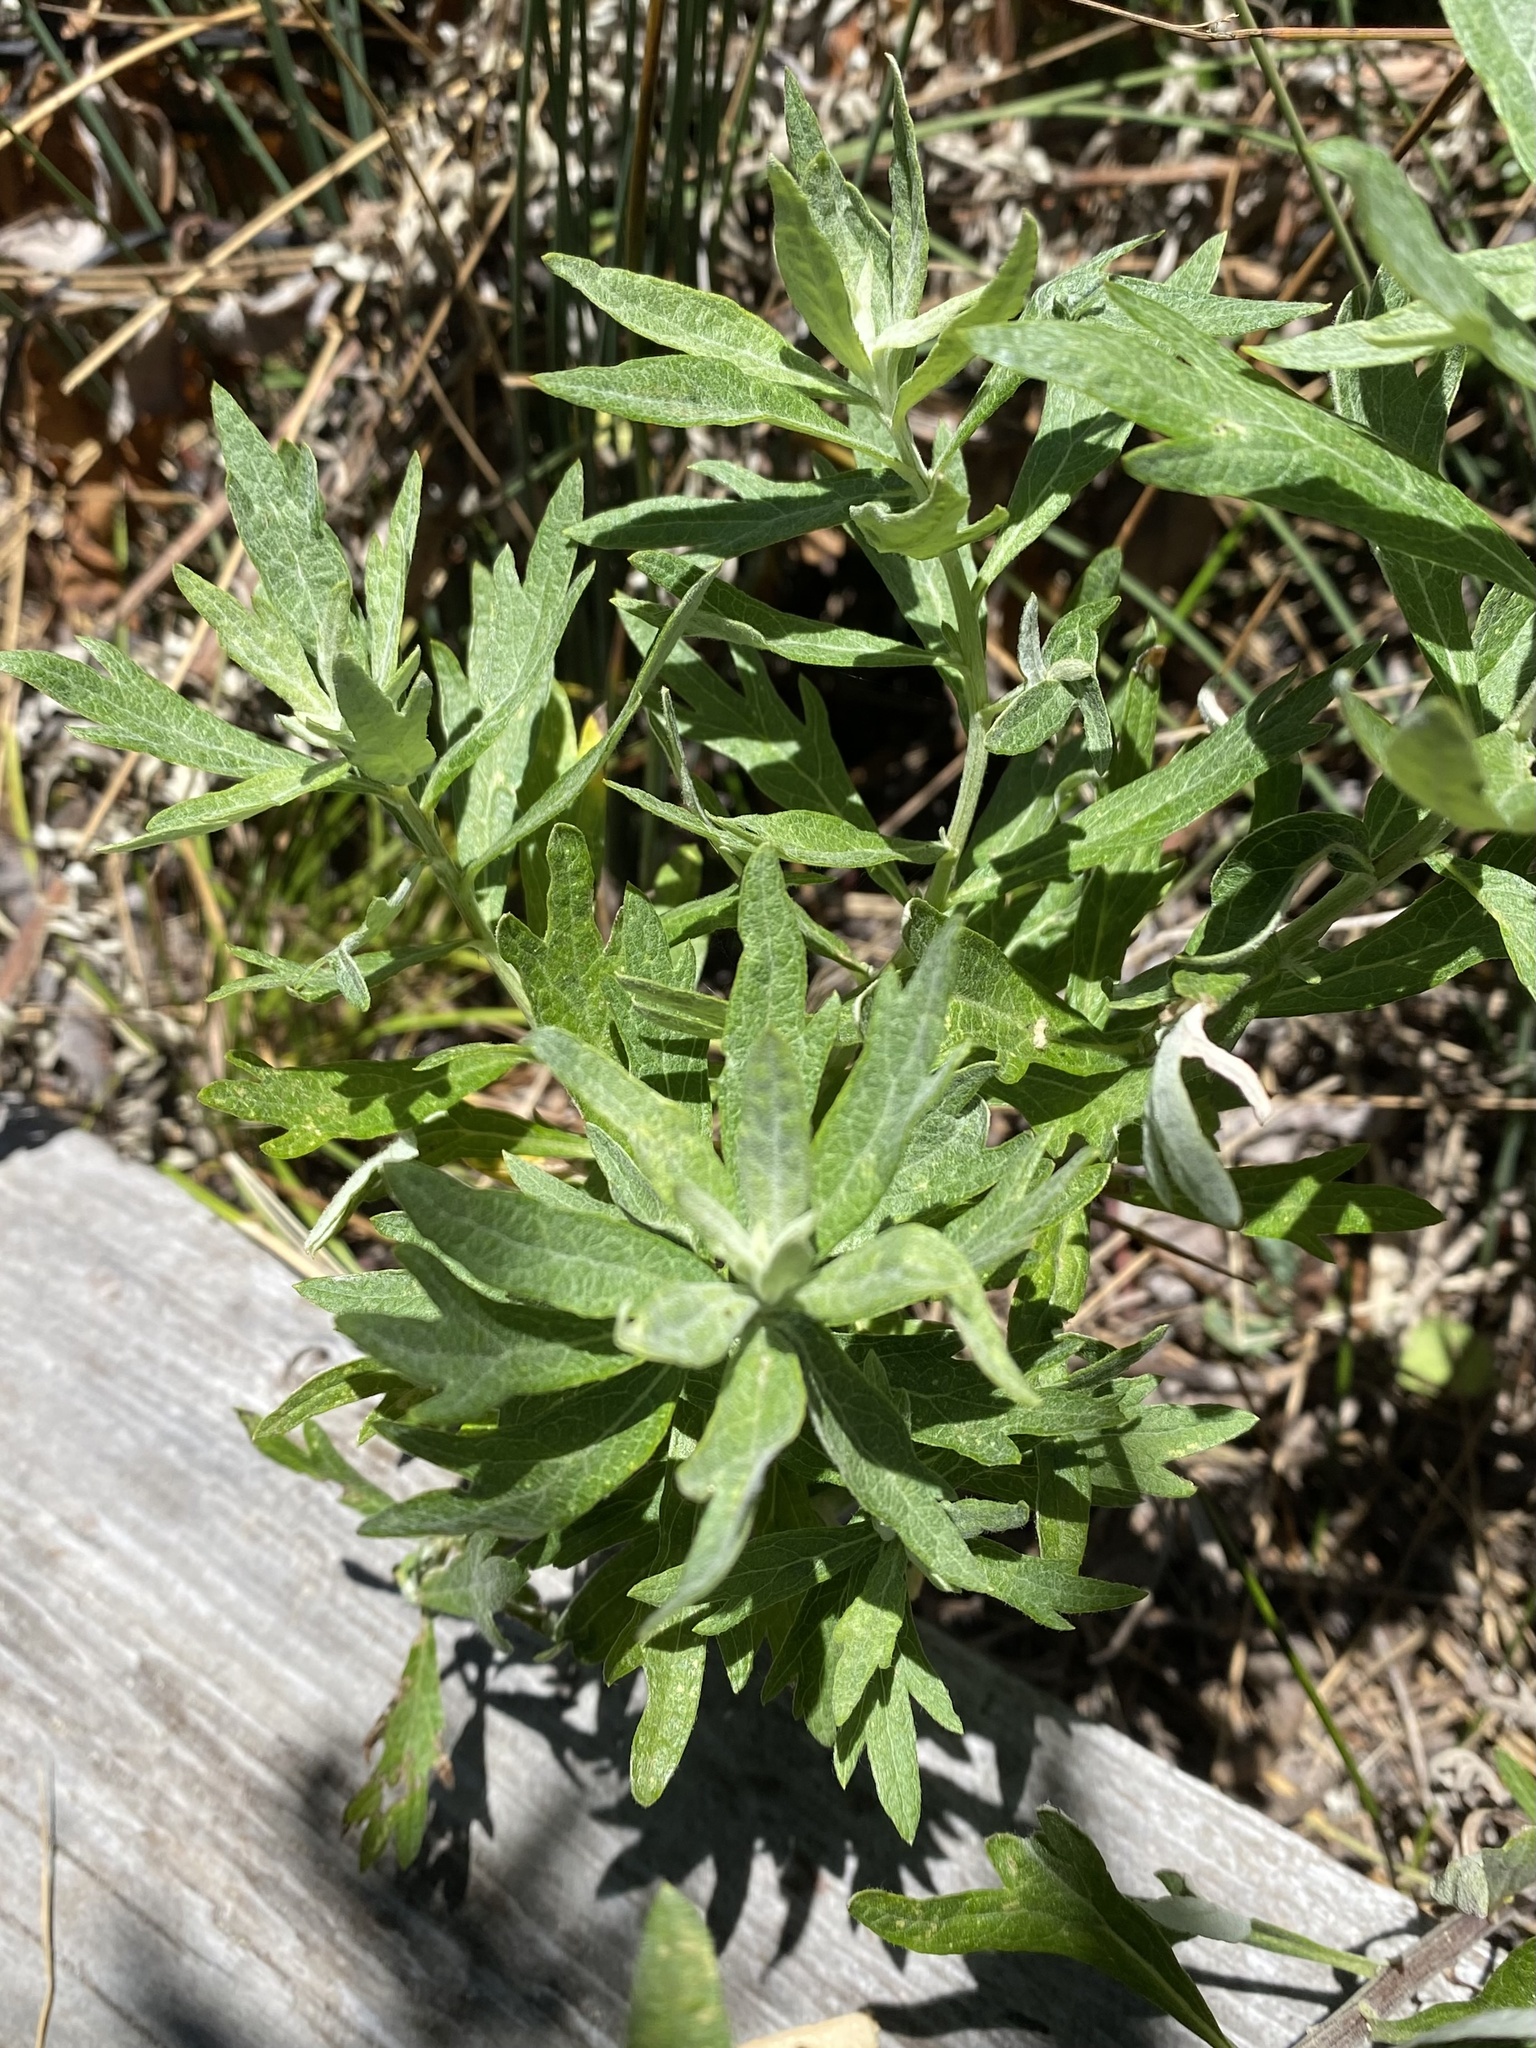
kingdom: Plantae
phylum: Tracheophyta
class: Magnoliopsida
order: Asterales
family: Asteraceae
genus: Artemisia
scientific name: Artemisia douglasiana
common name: Northwest mugwort
